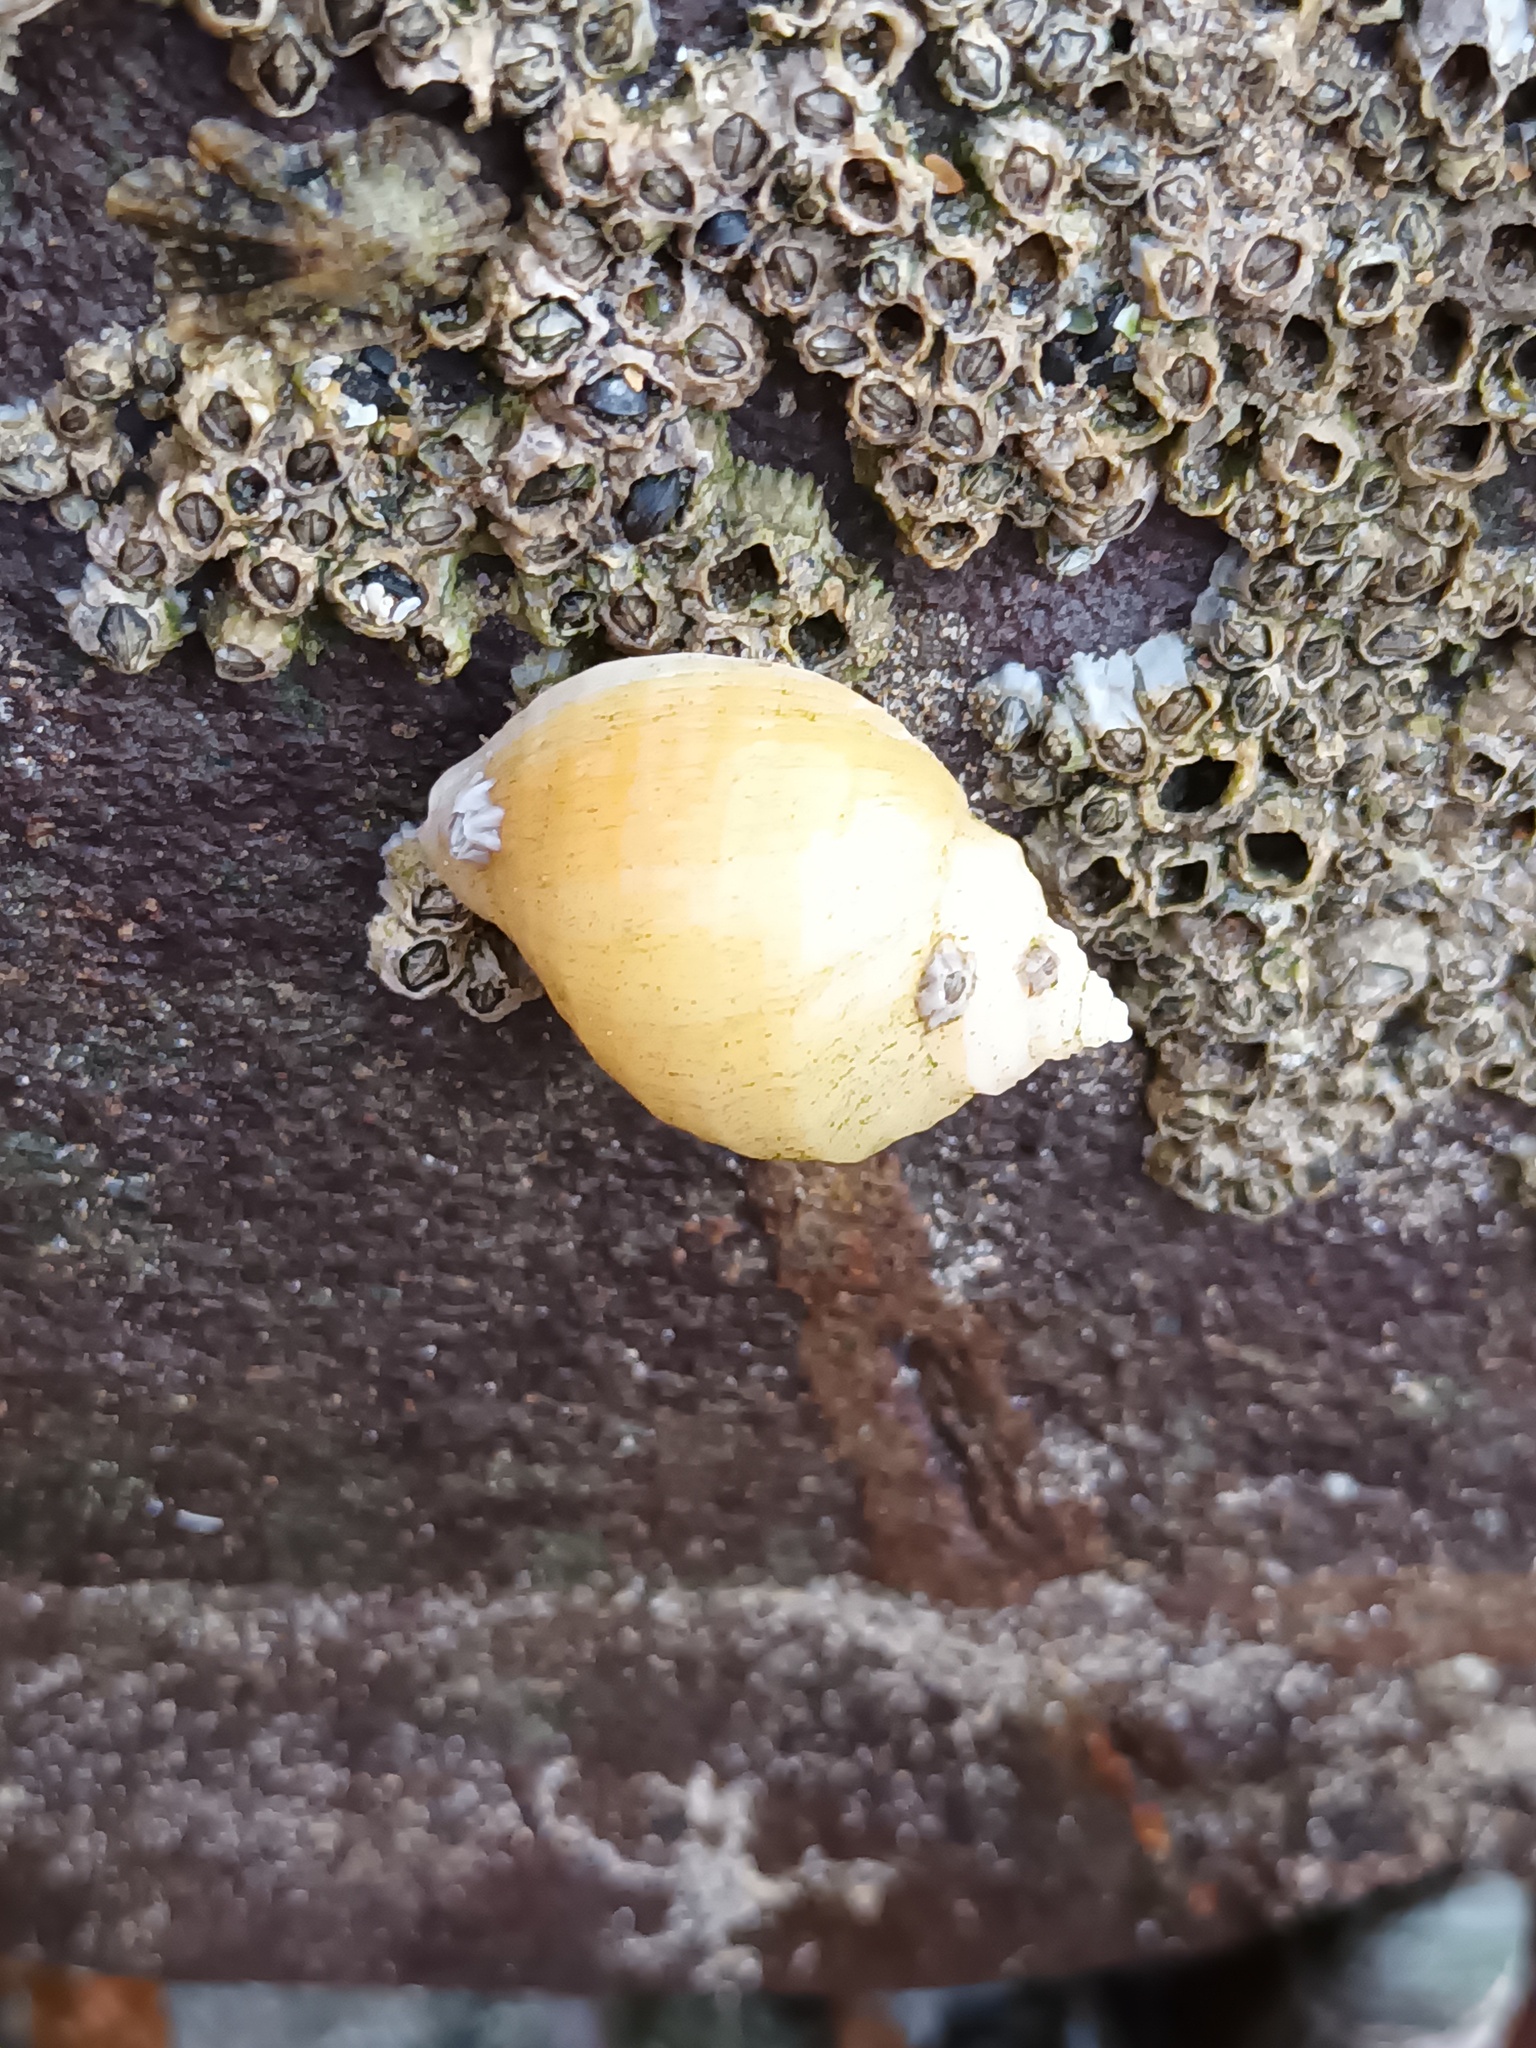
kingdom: Animalia
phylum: Mollusca
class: Gastropoda
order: Neogastropoda
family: Muricidae
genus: Nucella
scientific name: Nucella lapillus
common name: Dog whelk
